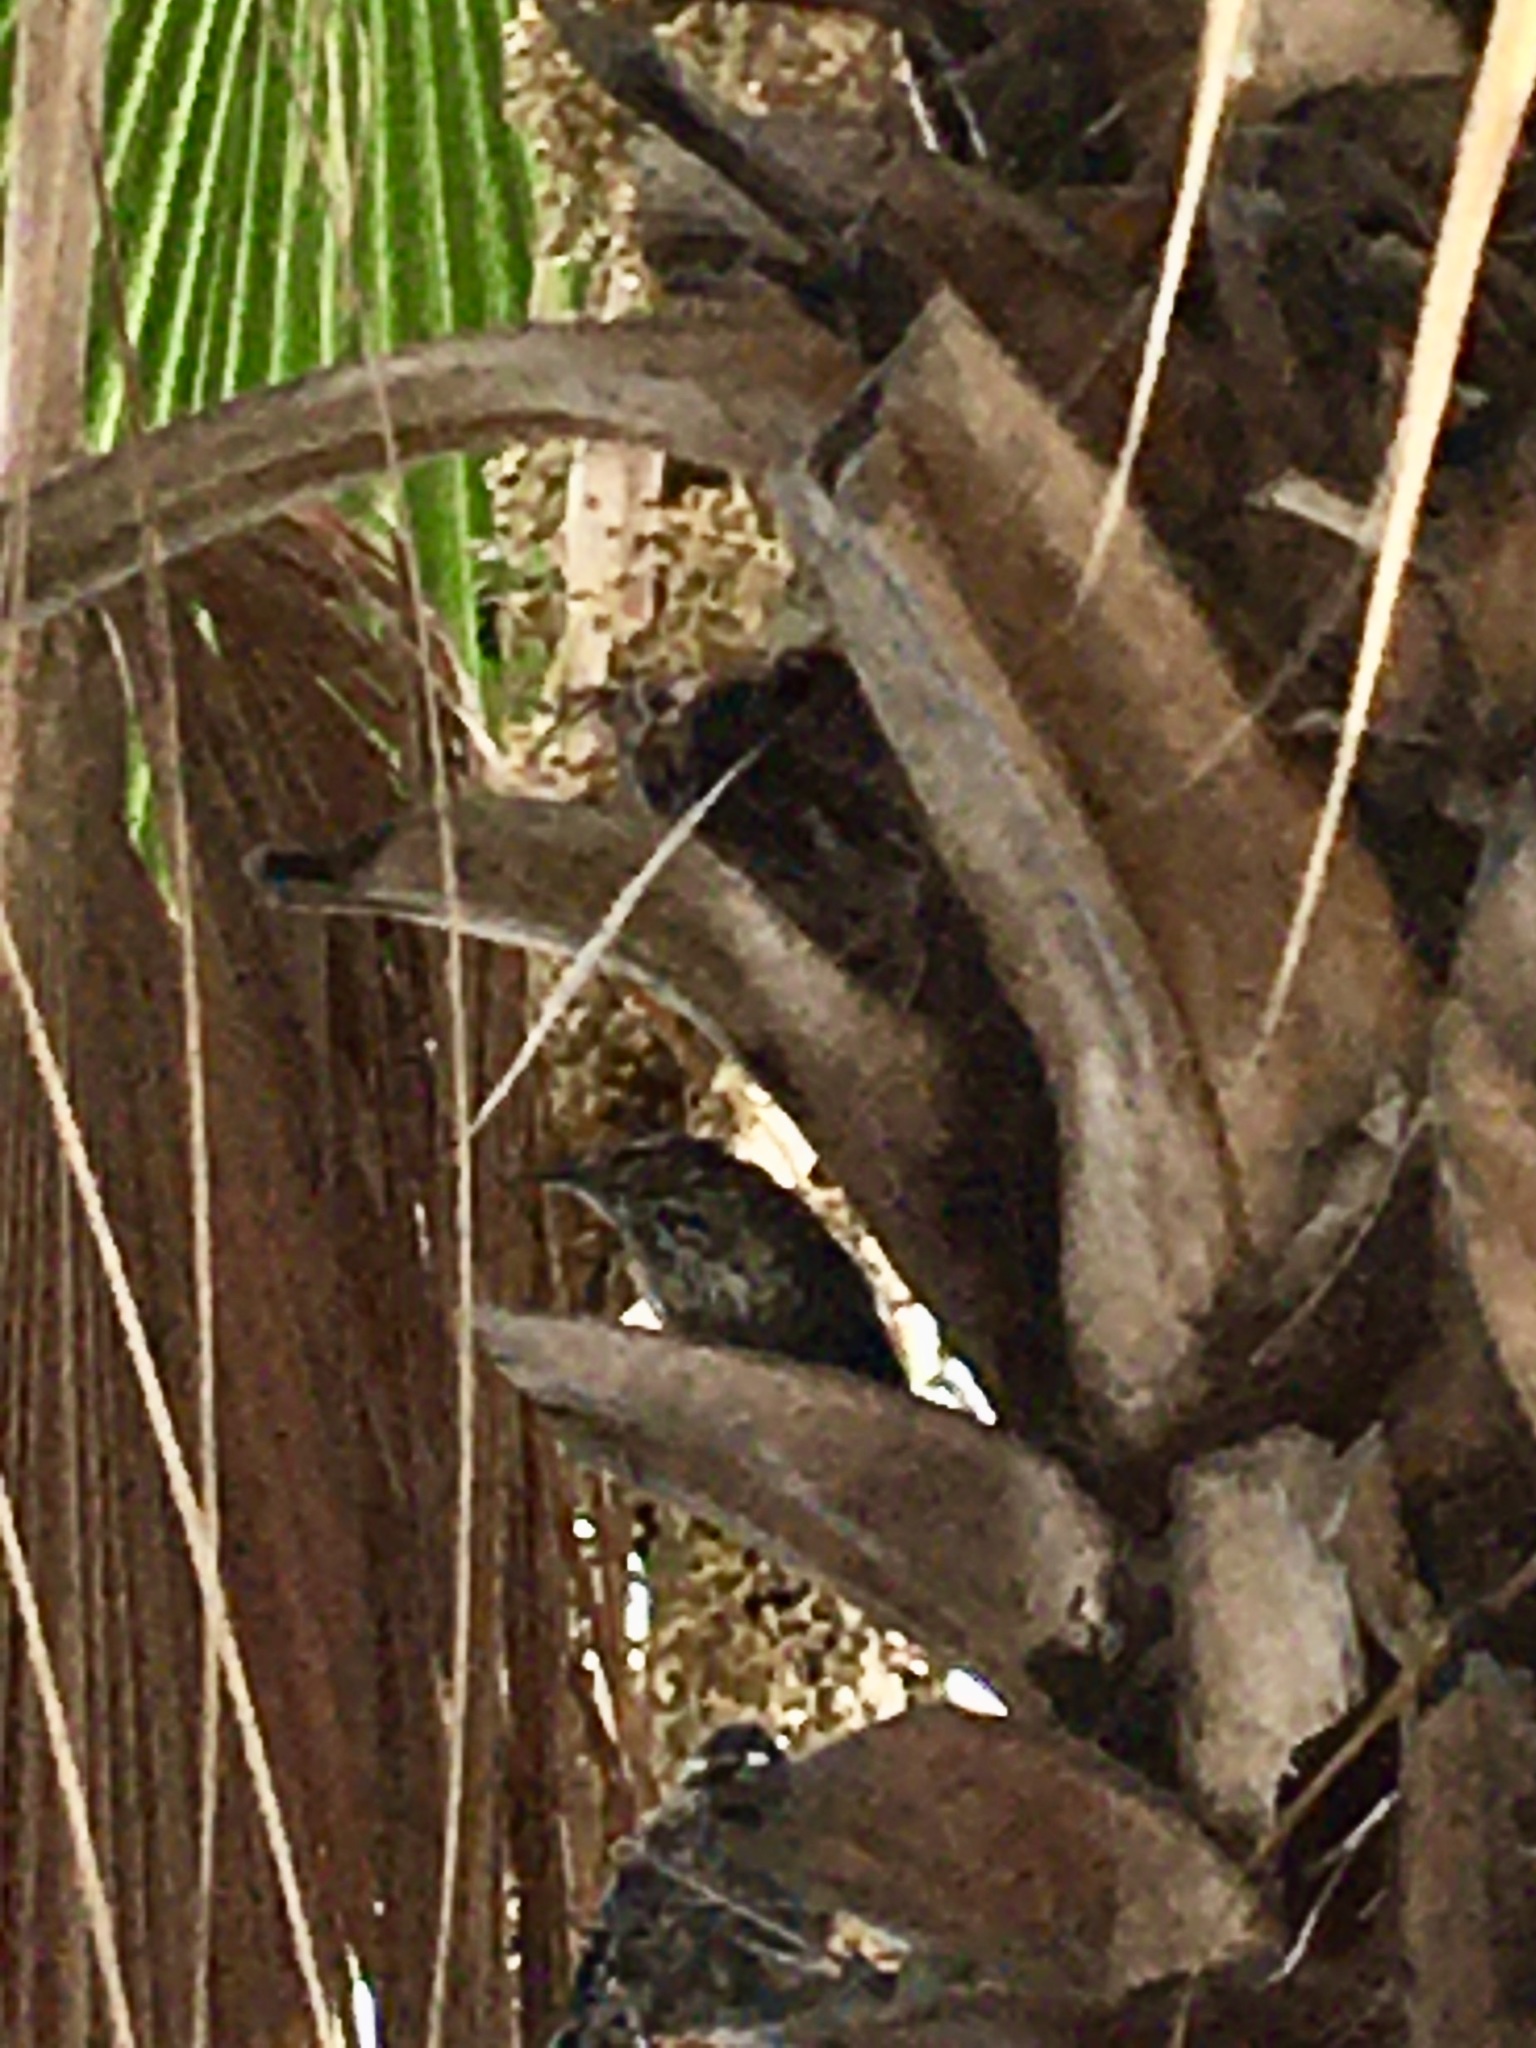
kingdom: Animalia
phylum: Chordata
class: Aves
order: Passeriformes
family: Troglodytidae
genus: Campylorhynchus
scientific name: Campylorhynchus brunneicapillus
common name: Cactus wren
